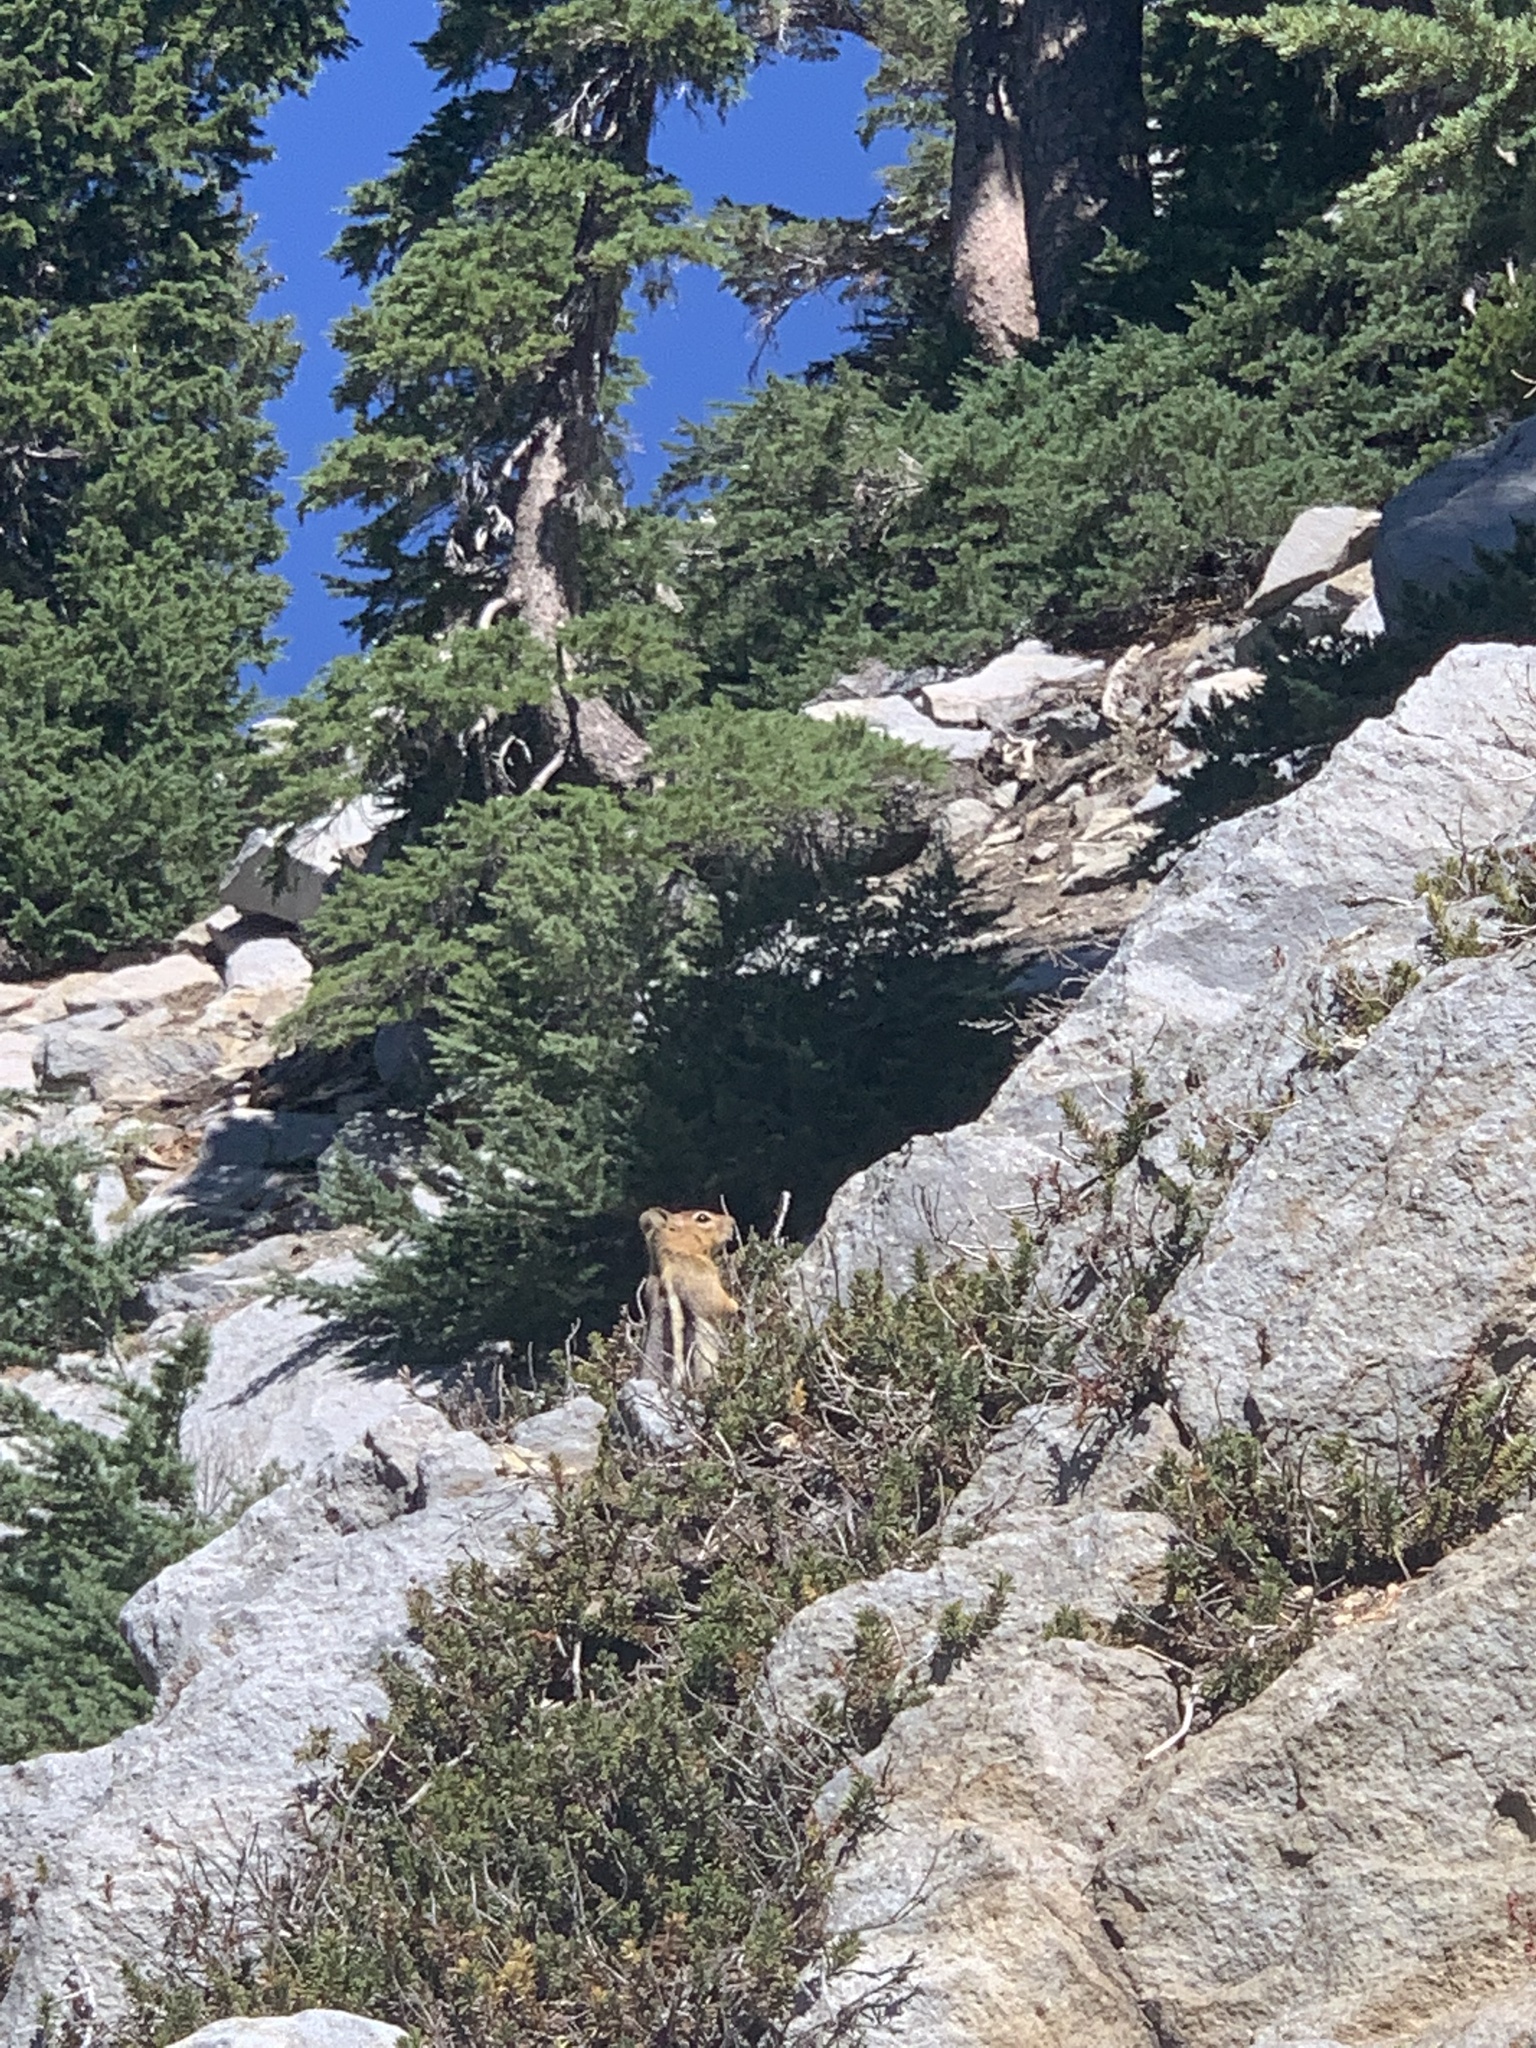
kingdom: Animalia
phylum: Chordata
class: Mammalia
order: Rodentia
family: Sciuridae
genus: Callospermophilus
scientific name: Callospermophilus lateralis
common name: Golden-mantled ground squirrel
